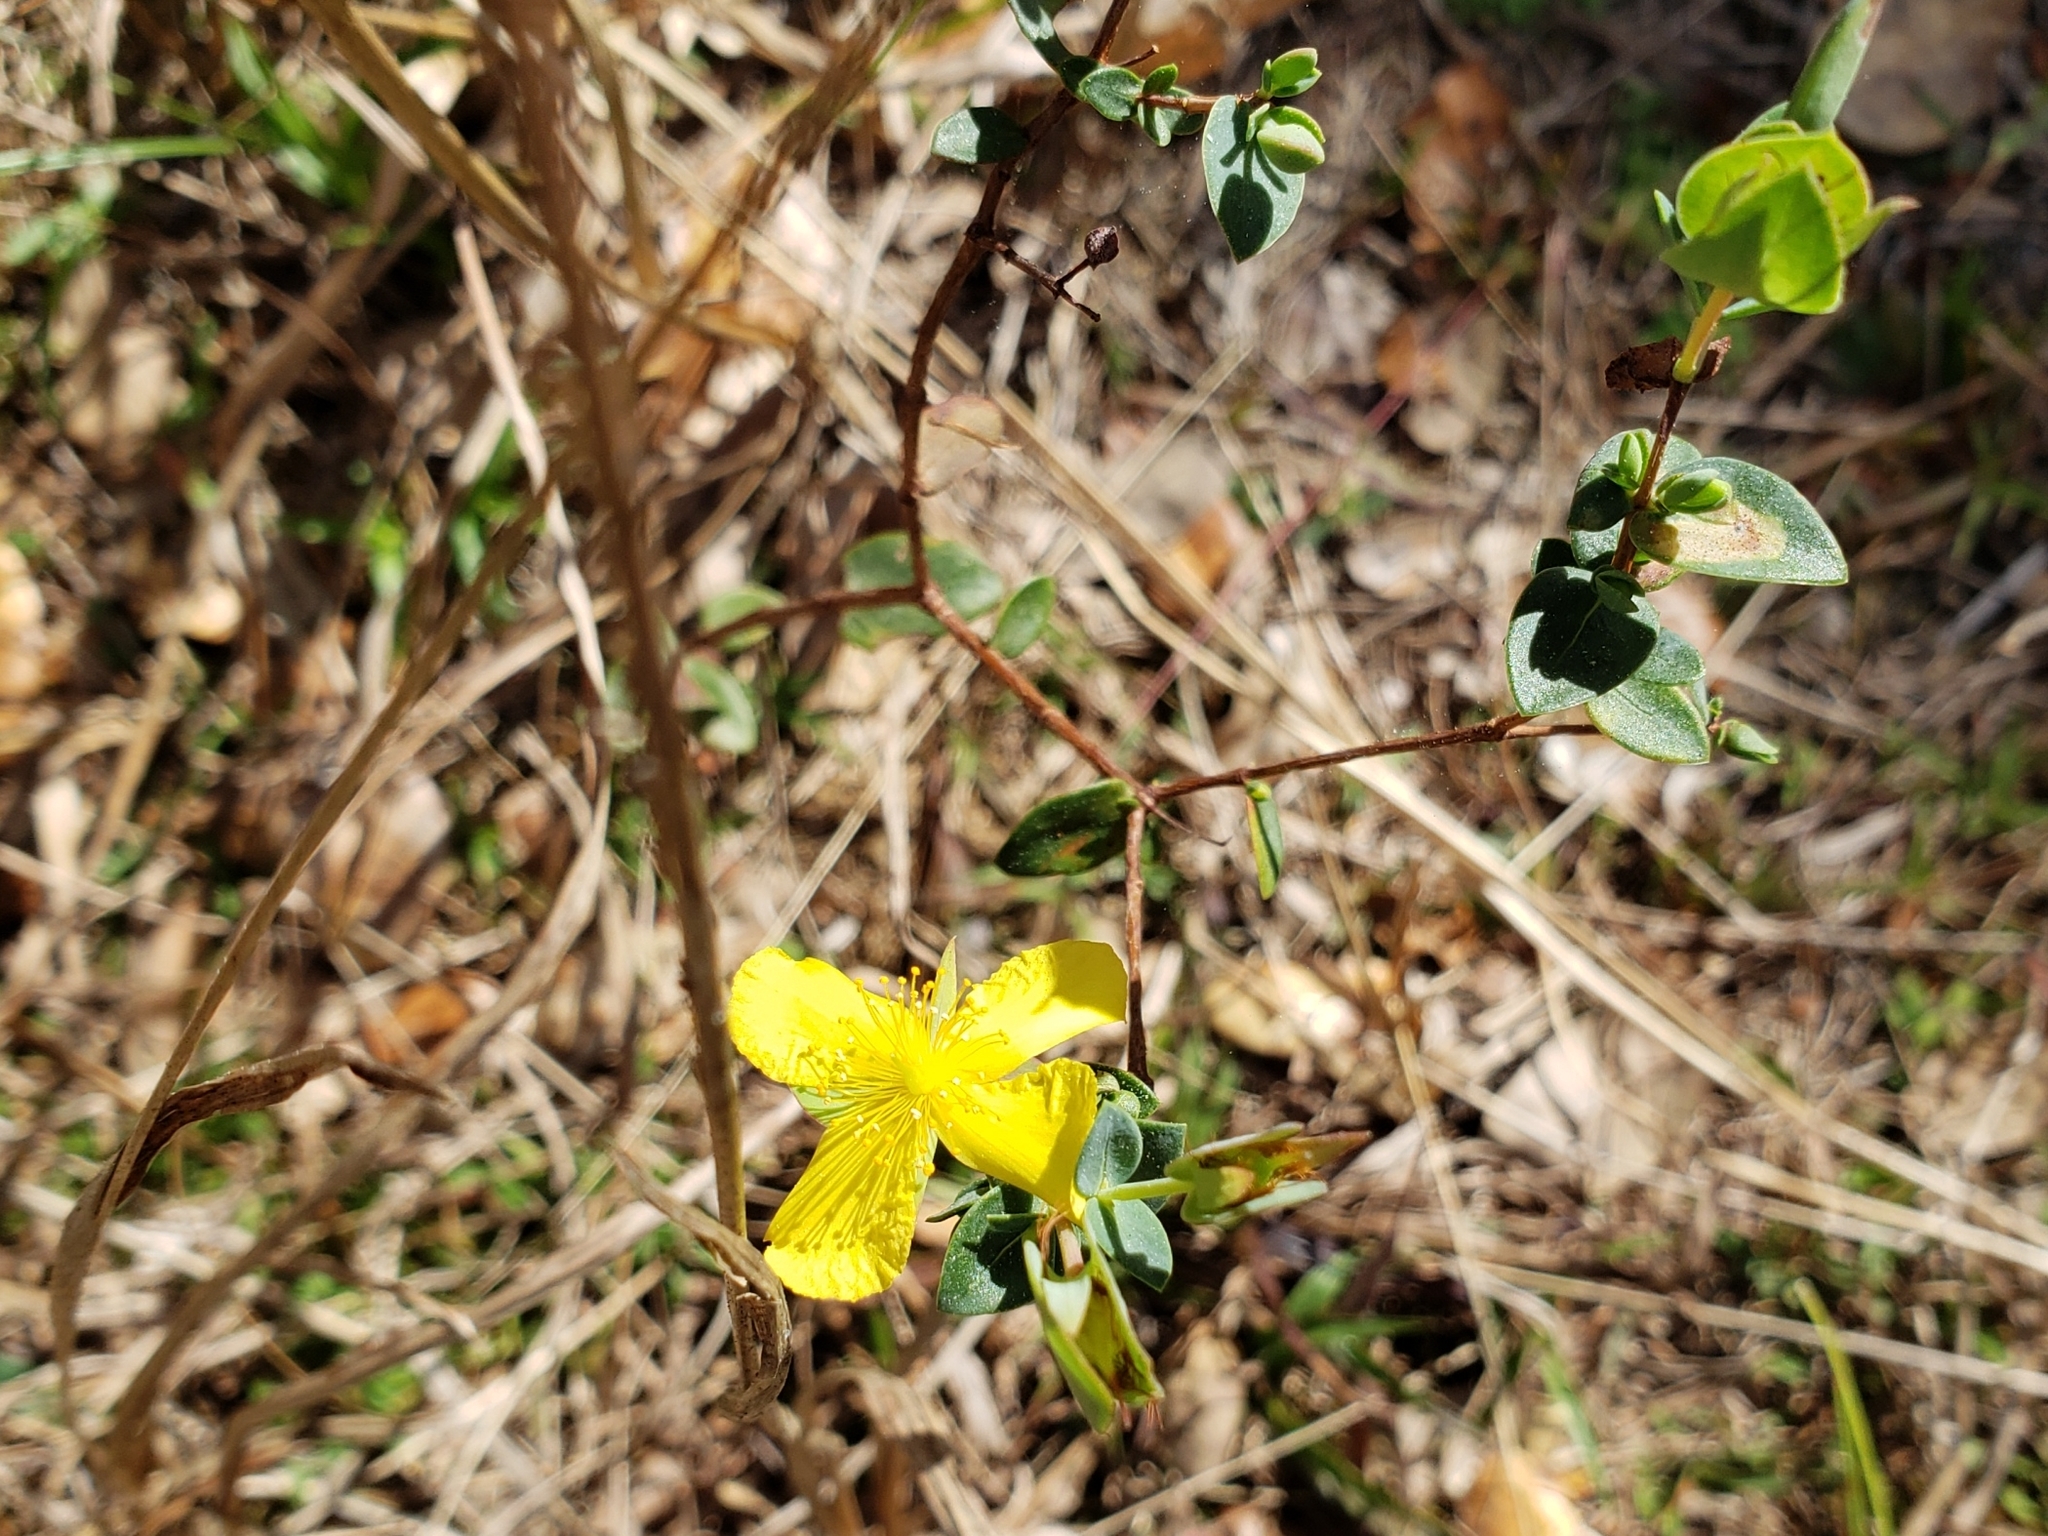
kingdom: Plantae
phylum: Tracheophyta
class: Magnoliopsida
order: Malpighiales
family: Hypericaceae
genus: Hypericum
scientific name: Hypericum tetrapetalum
